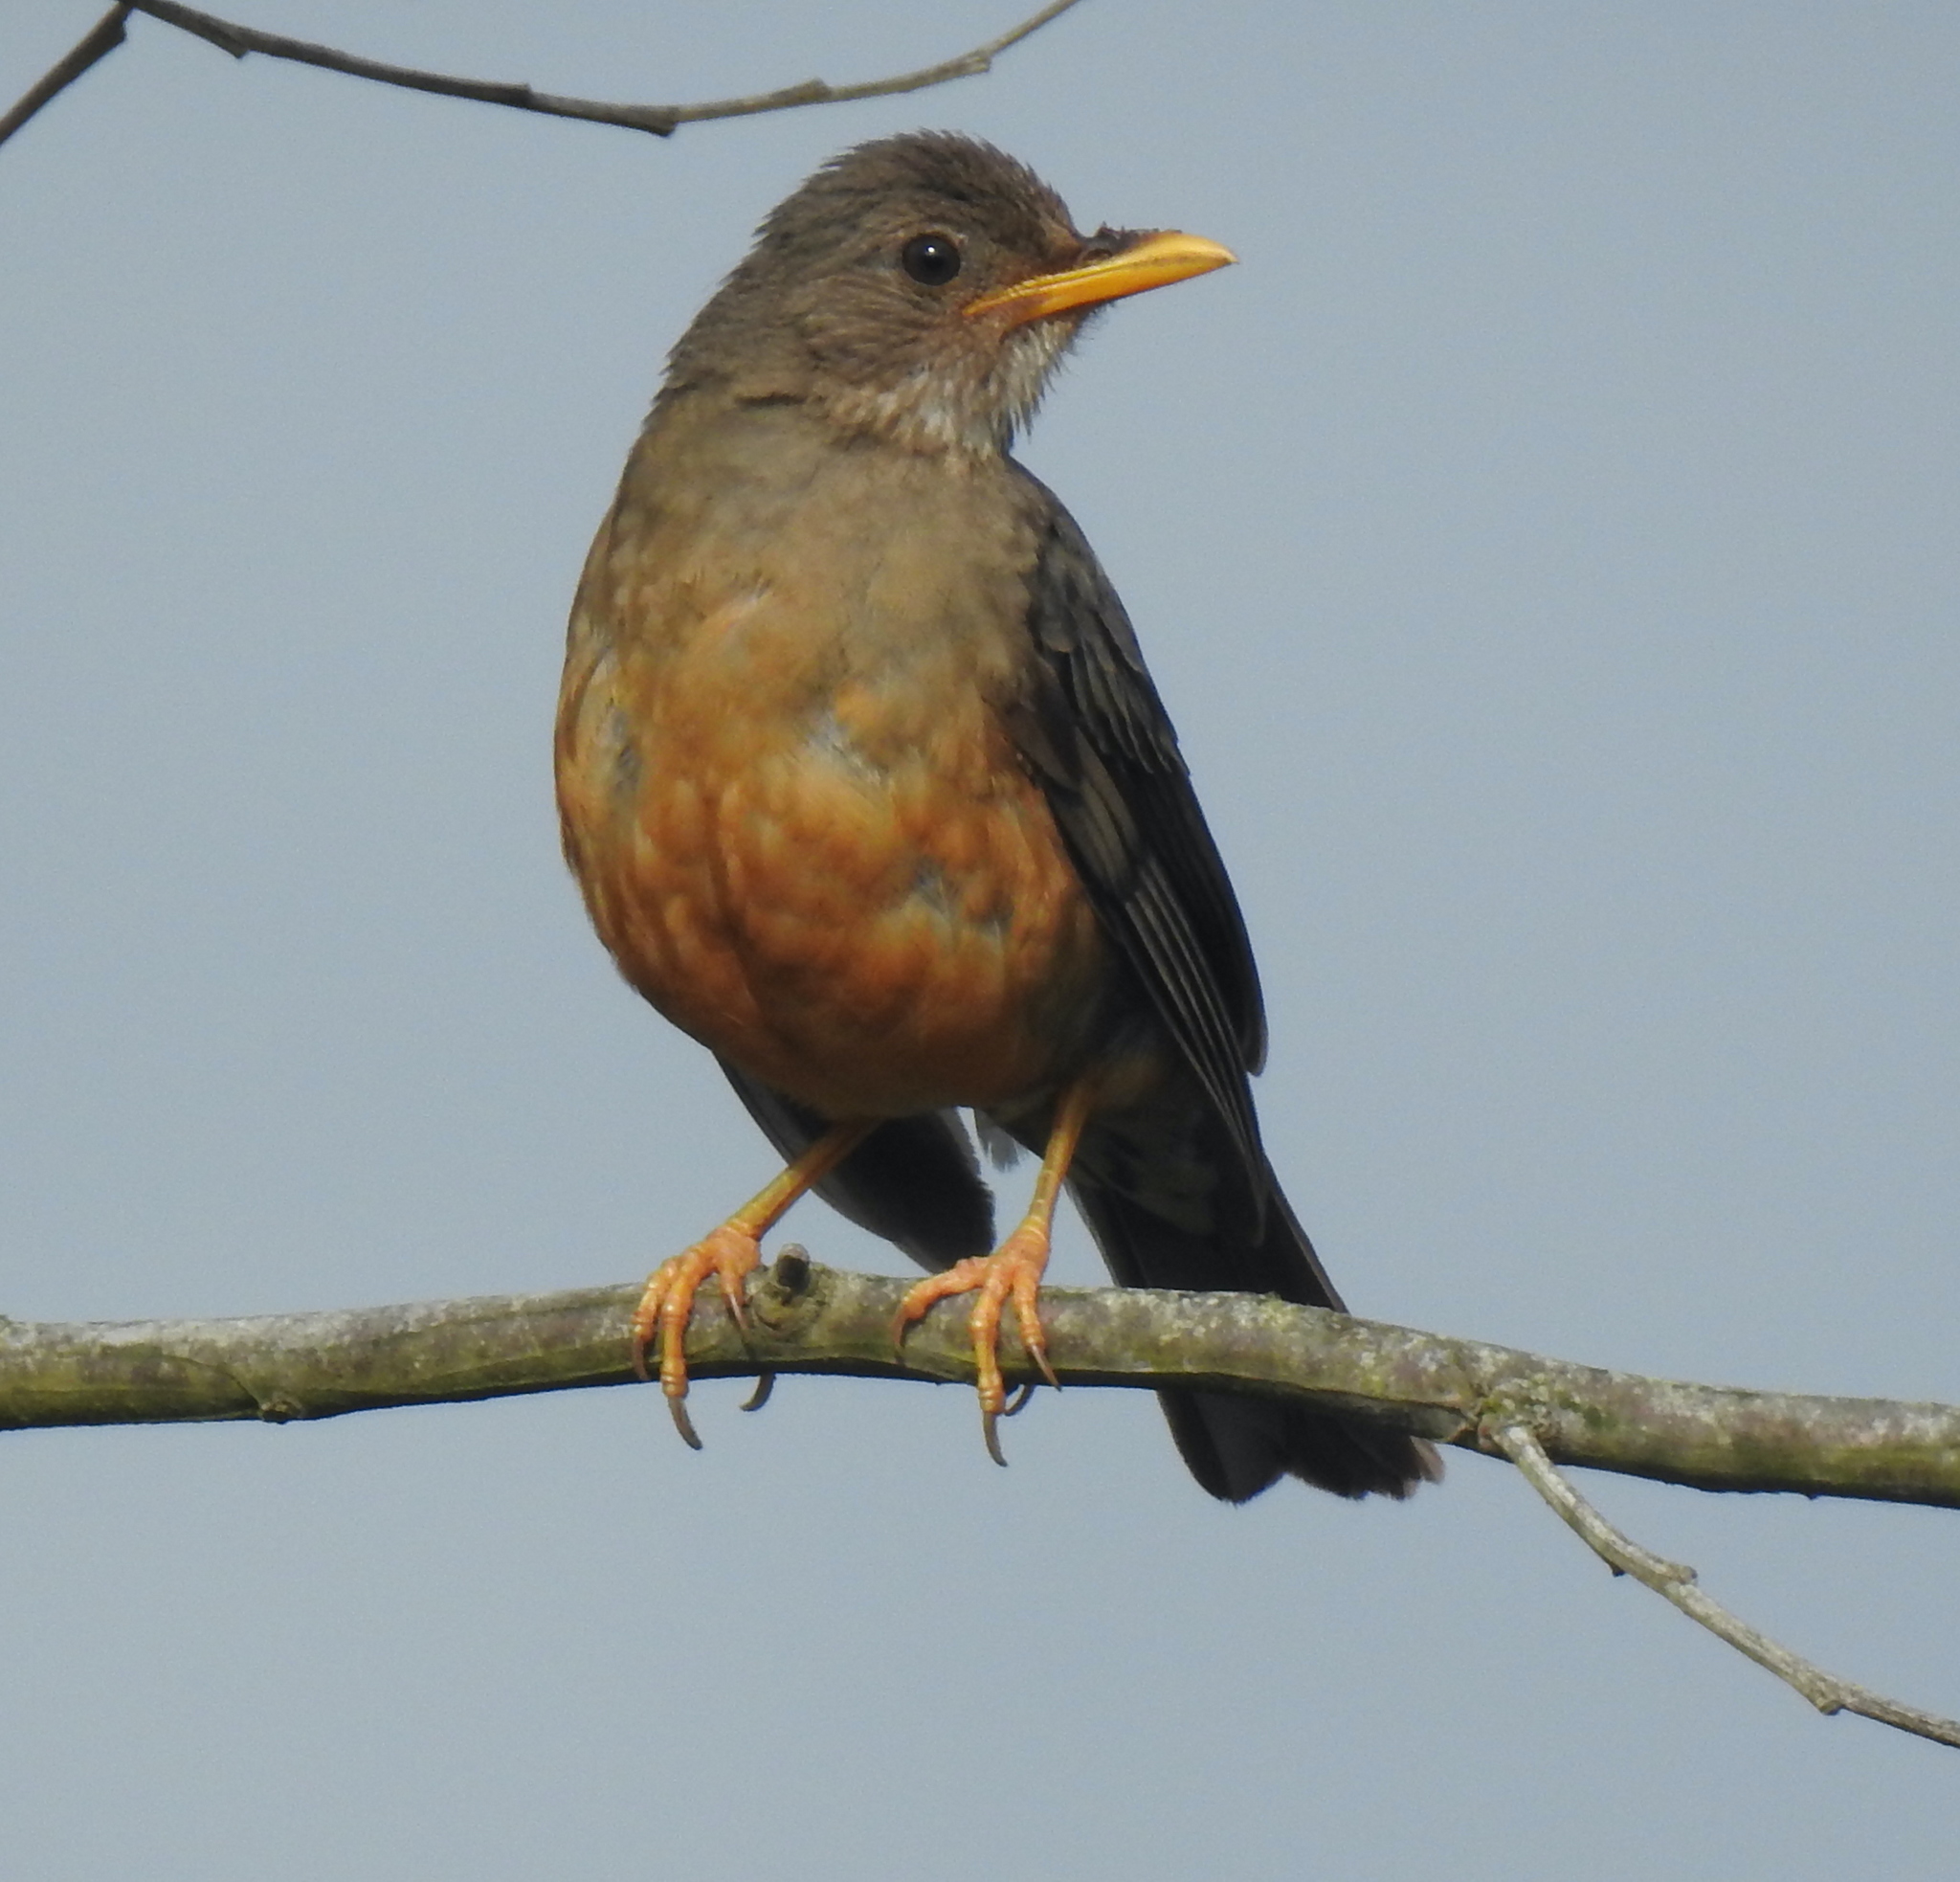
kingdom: Animalia
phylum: Chordata
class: Aves
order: Passeriformes
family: Turdidae
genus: Turdus
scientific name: Turdus olivaceus
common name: Olive thrush
